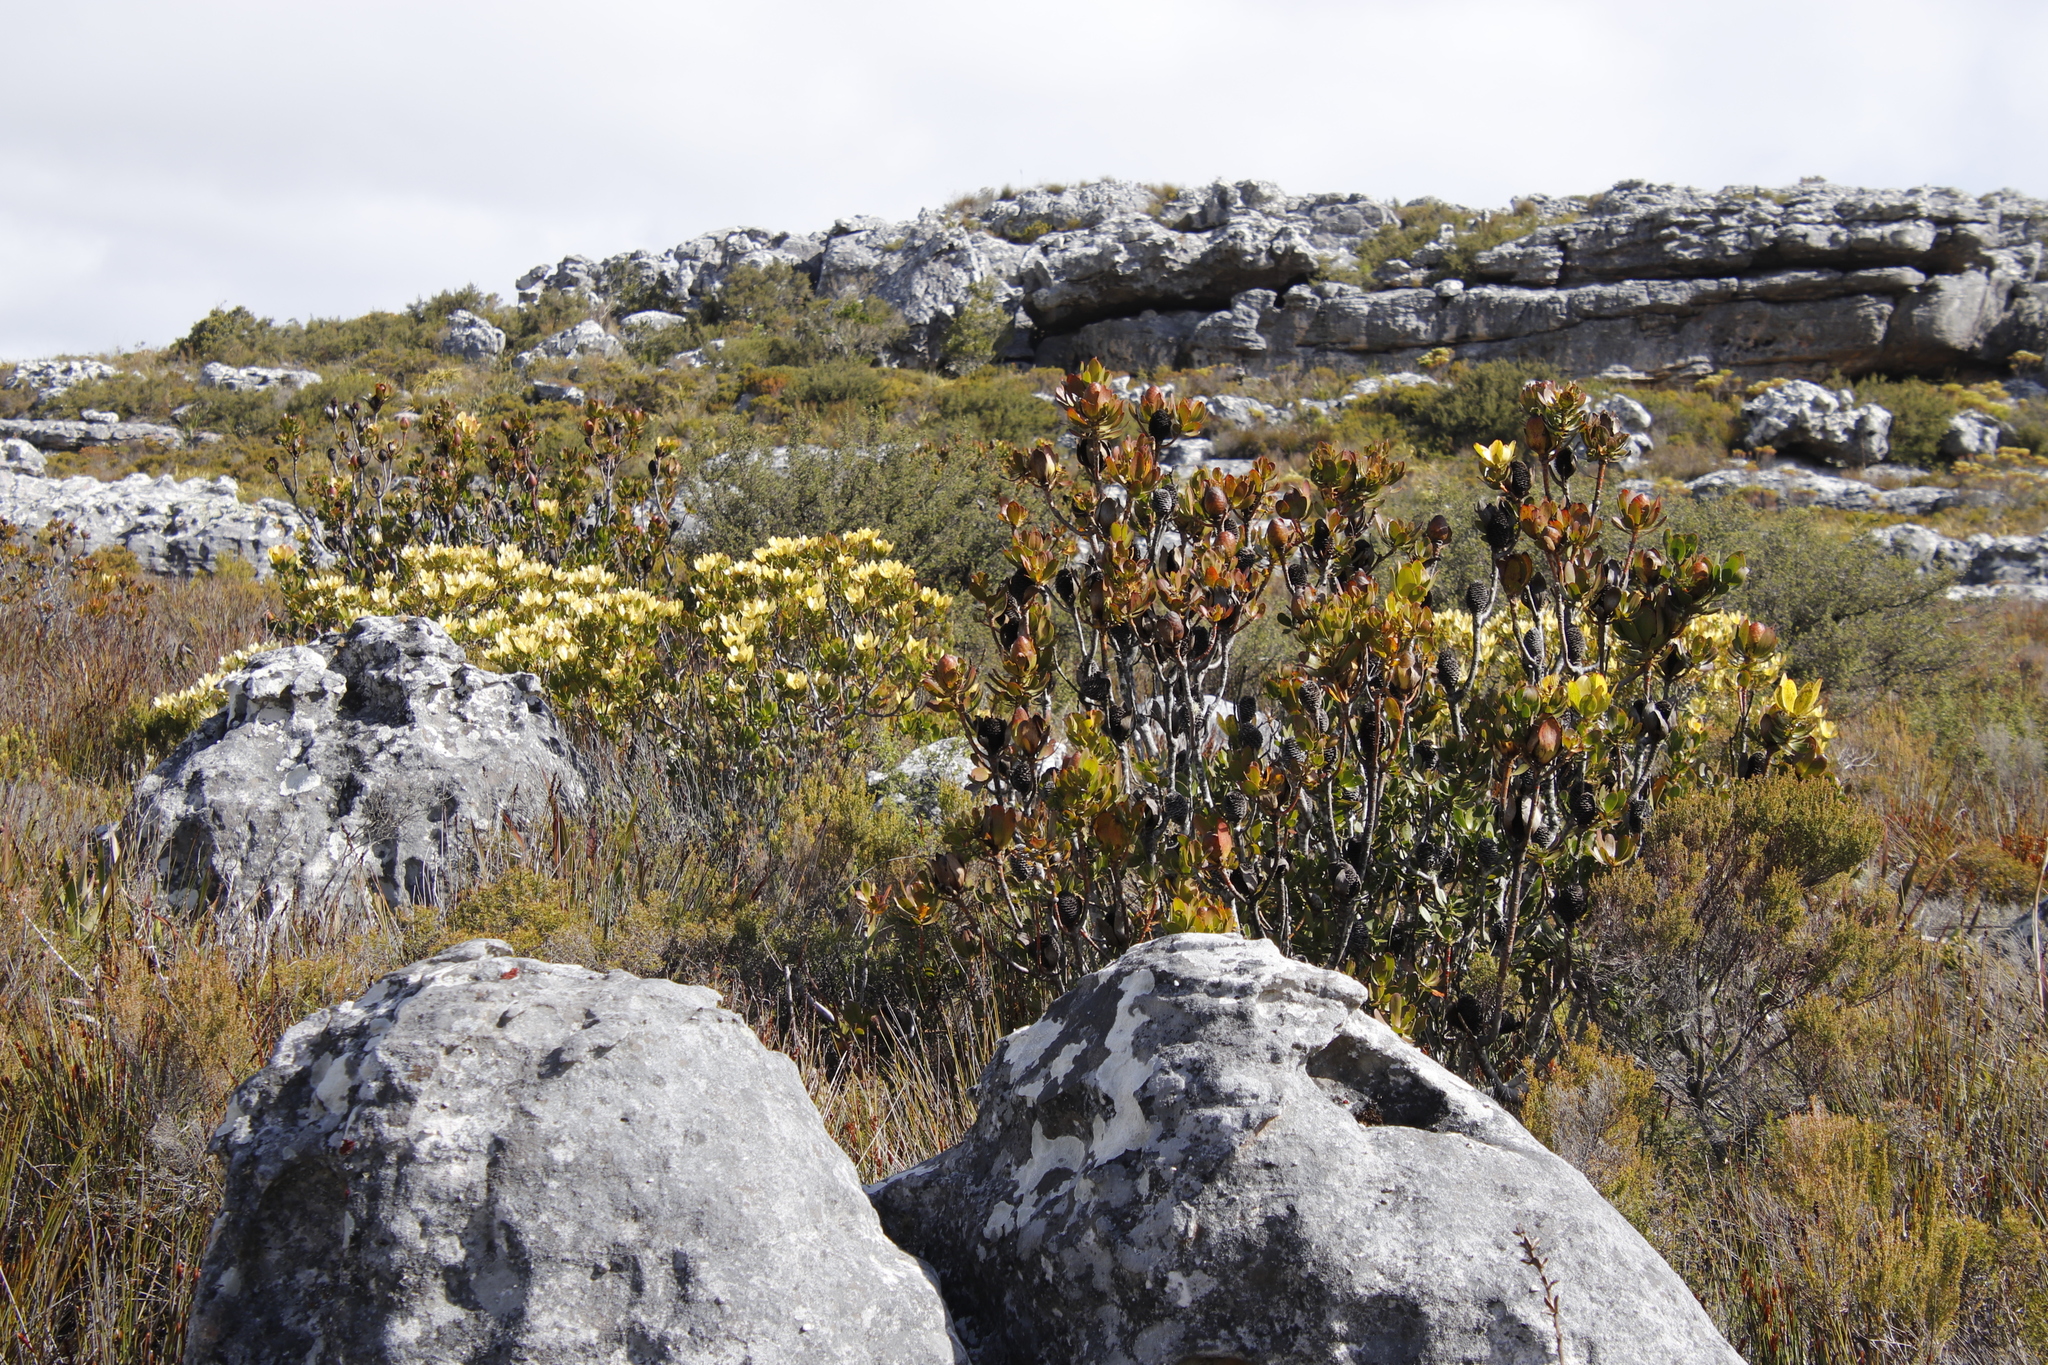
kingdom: Plantae
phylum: Tracheophyta
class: Magnoliopsida
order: Proteales
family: Proteaceae
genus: Leucadendron
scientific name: Leucadendron strobilinum
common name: Mountain rose
